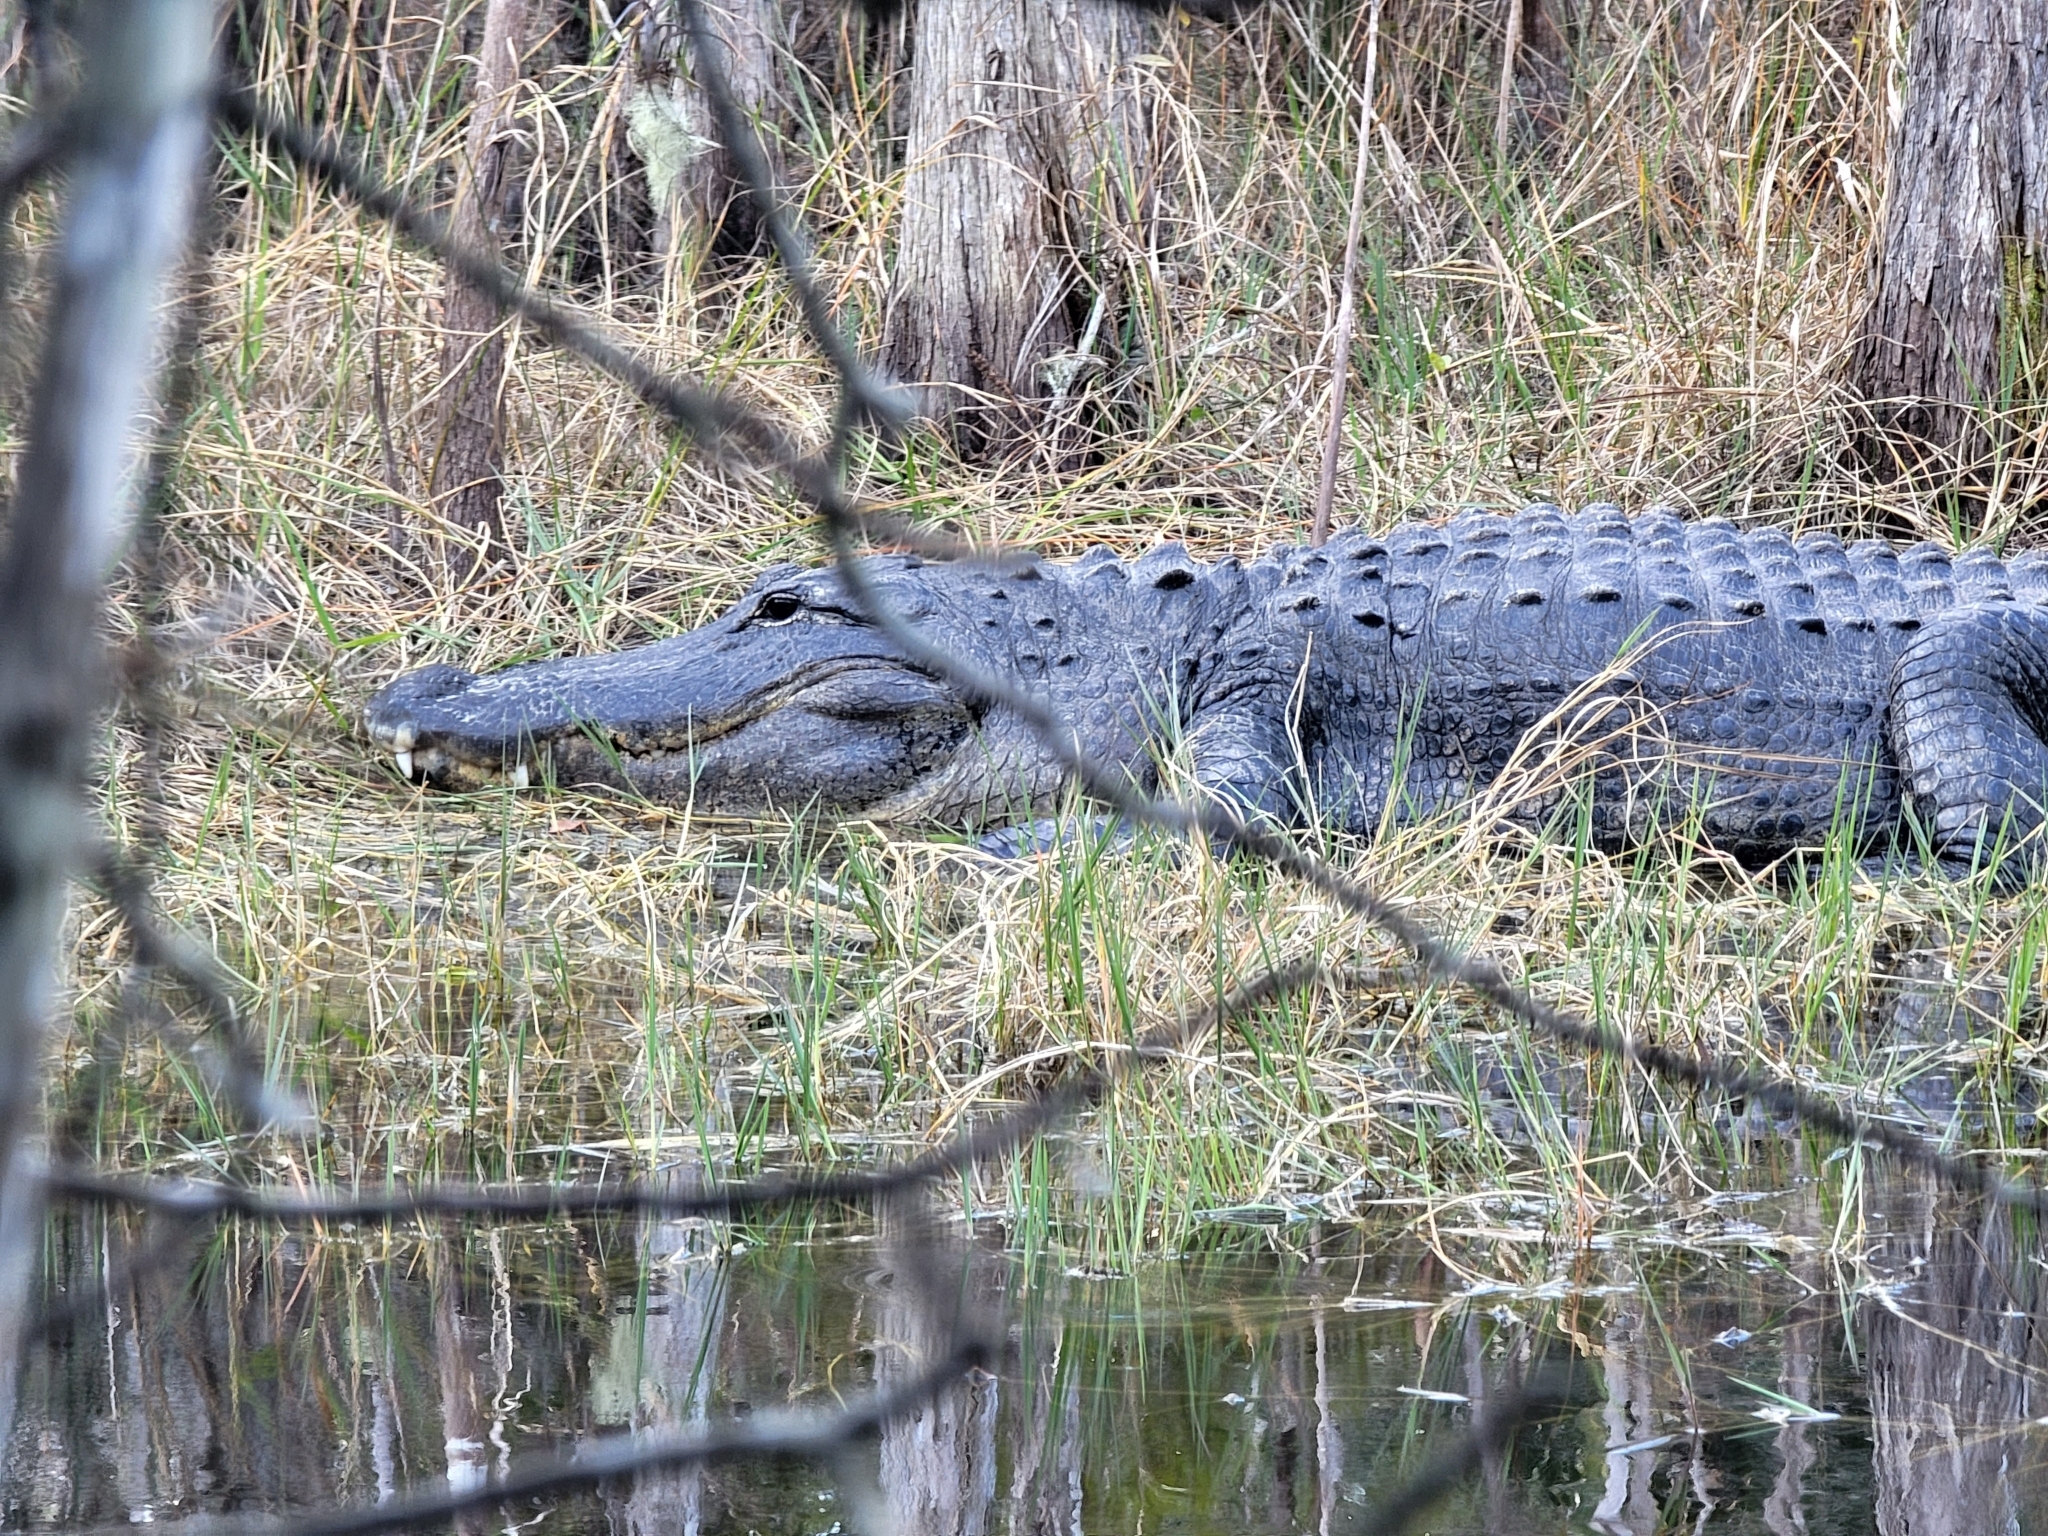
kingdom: Animalia
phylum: Chordata
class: Crocodylia
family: Alligatoridae
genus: Alligator
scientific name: Alligator mississippiensis
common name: American alligator
